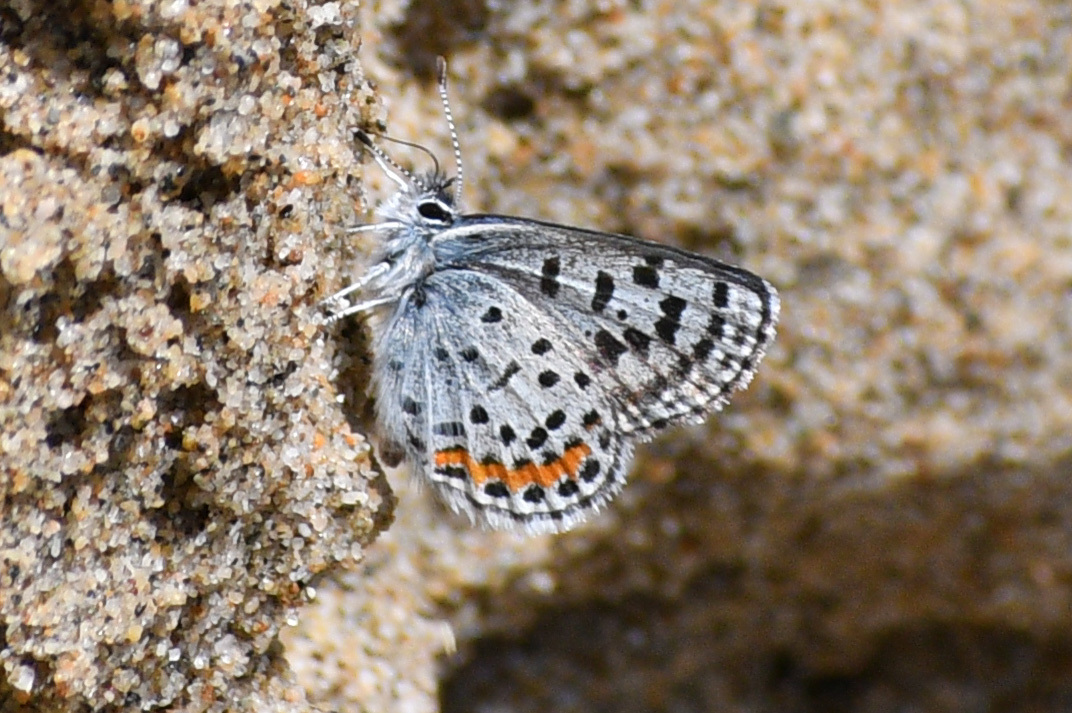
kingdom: Animalia
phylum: Arthropoda
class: Insecta
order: Lepidoptera
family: Lycaenidae
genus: Euphilotes
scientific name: Euphilotes
